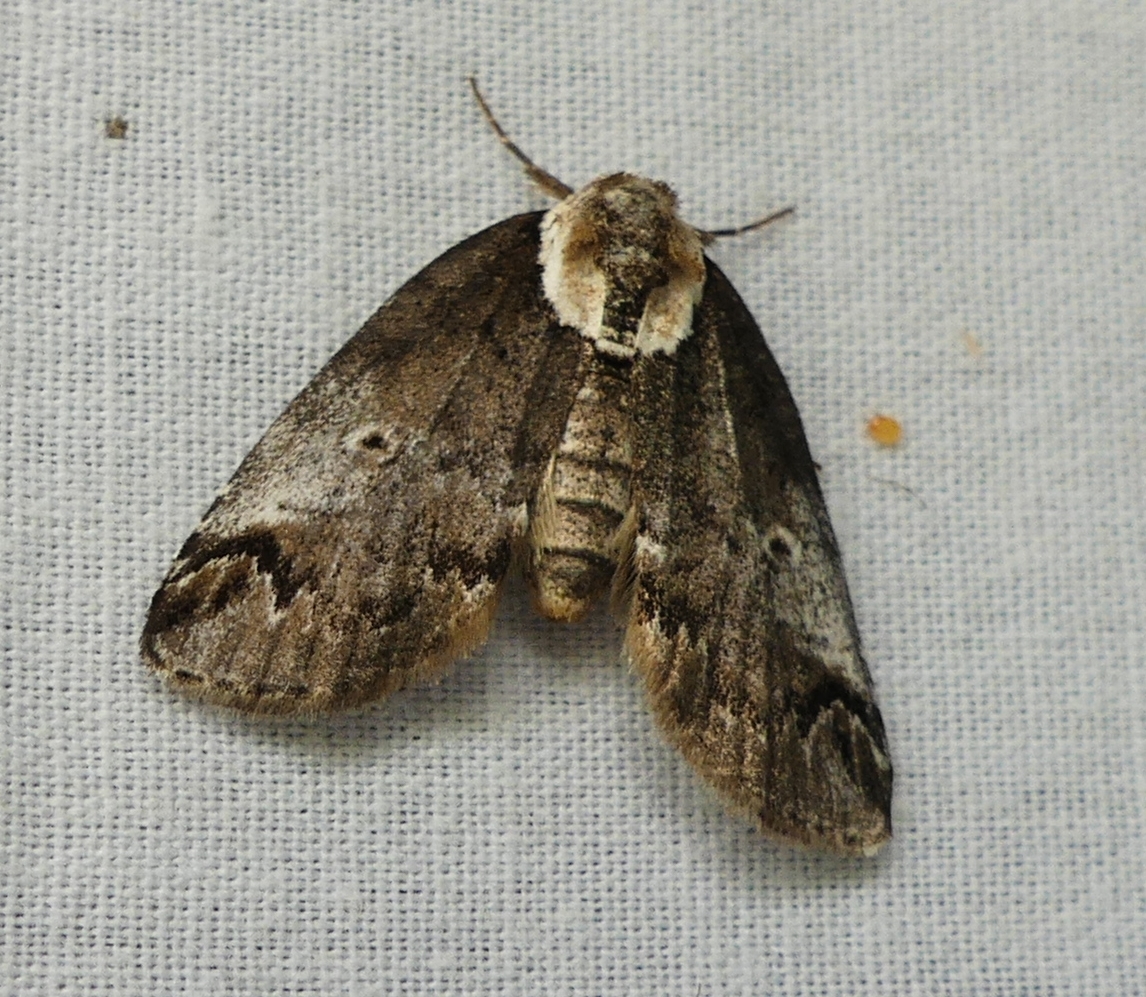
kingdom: Animalia
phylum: Arthropoda
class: Insecta
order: Lepidoptera
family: Nolidae
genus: Baileya
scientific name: Baileya ophthalmica
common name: Eyed baileya moth
